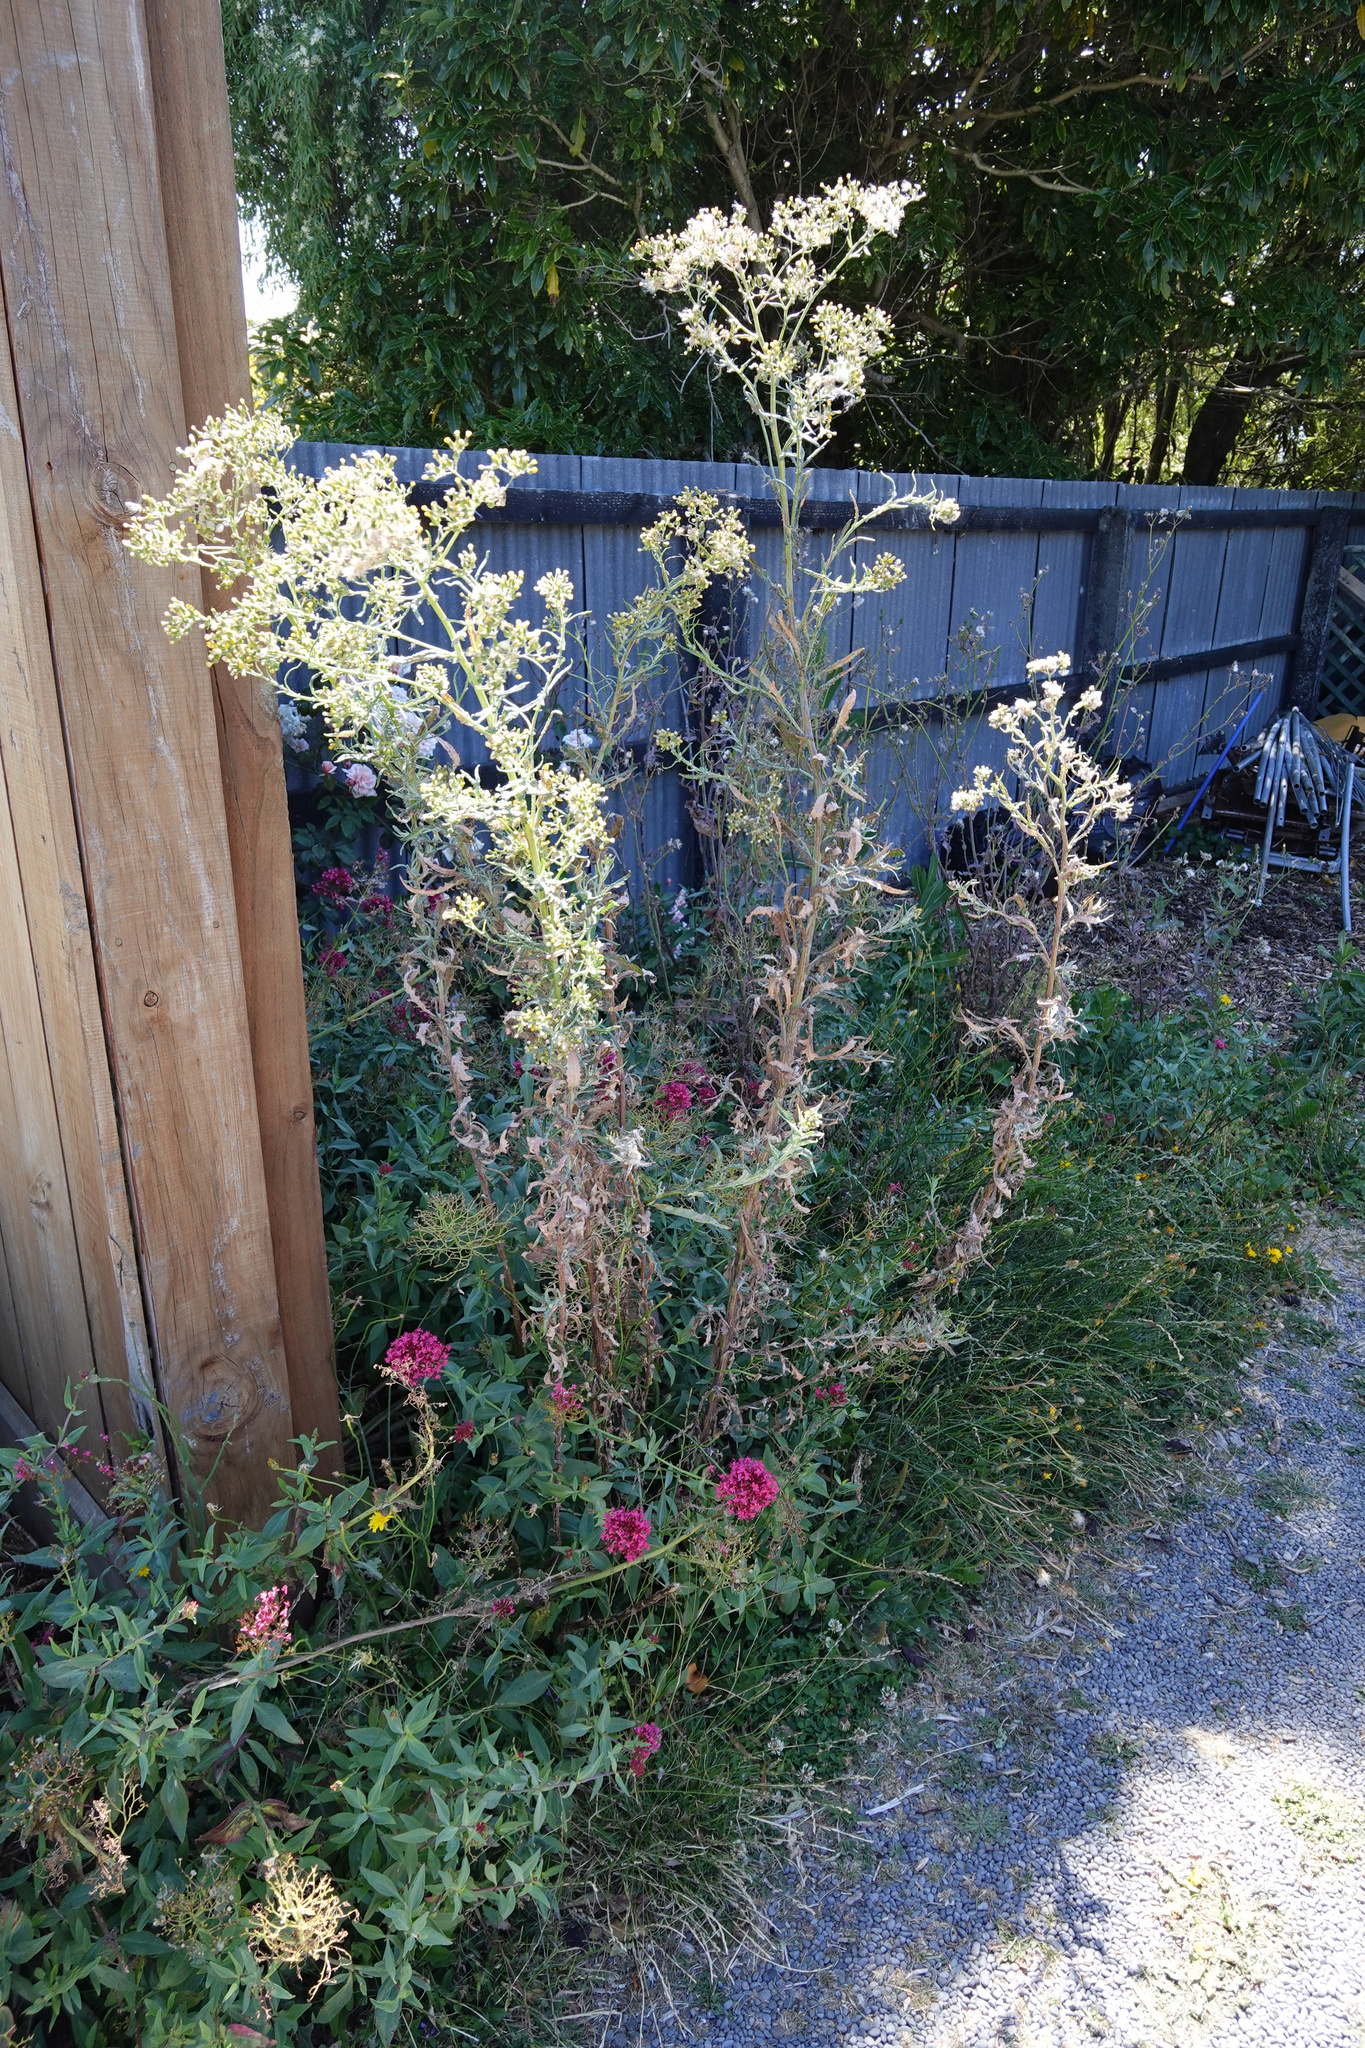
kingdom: Plantae
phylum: Tracheophyta
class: Magnoliopsida
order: Asterales
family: Asteraceae
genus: Senecio
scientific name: Senecio glomeratus
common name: Cutleaf burnweed
